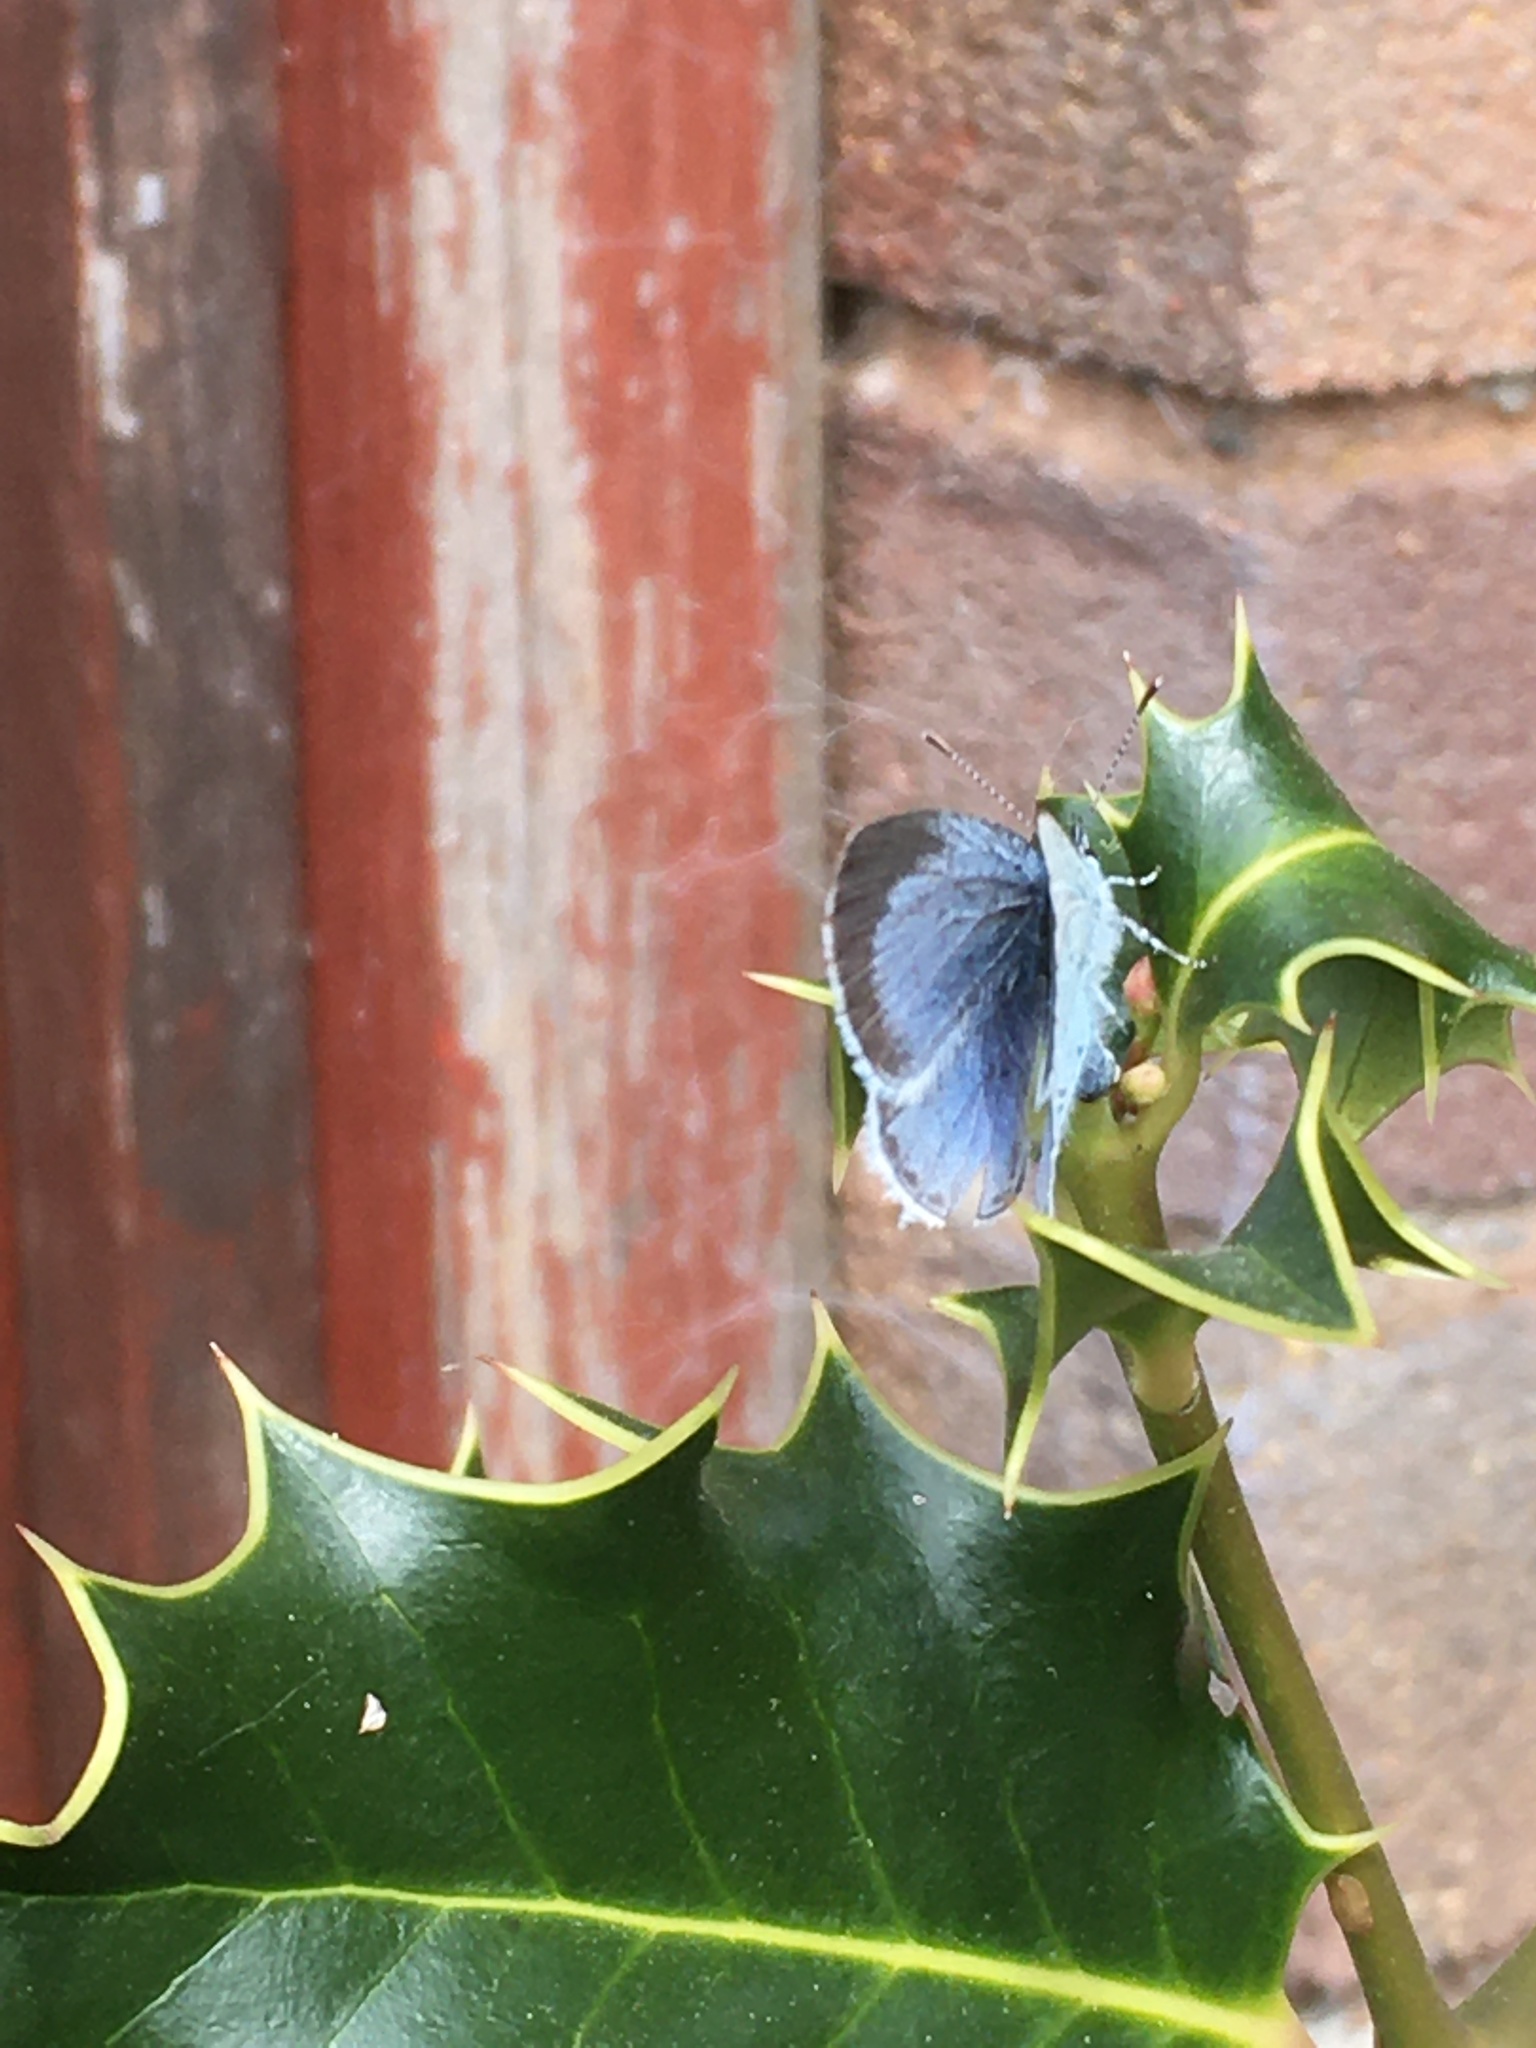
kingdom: Animalia
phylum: Arthropoda
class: Insecta
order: Lepidoptera
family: Lycaenidae
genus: Celastrina
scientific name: Celastrina argiolus
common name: Holly blue
